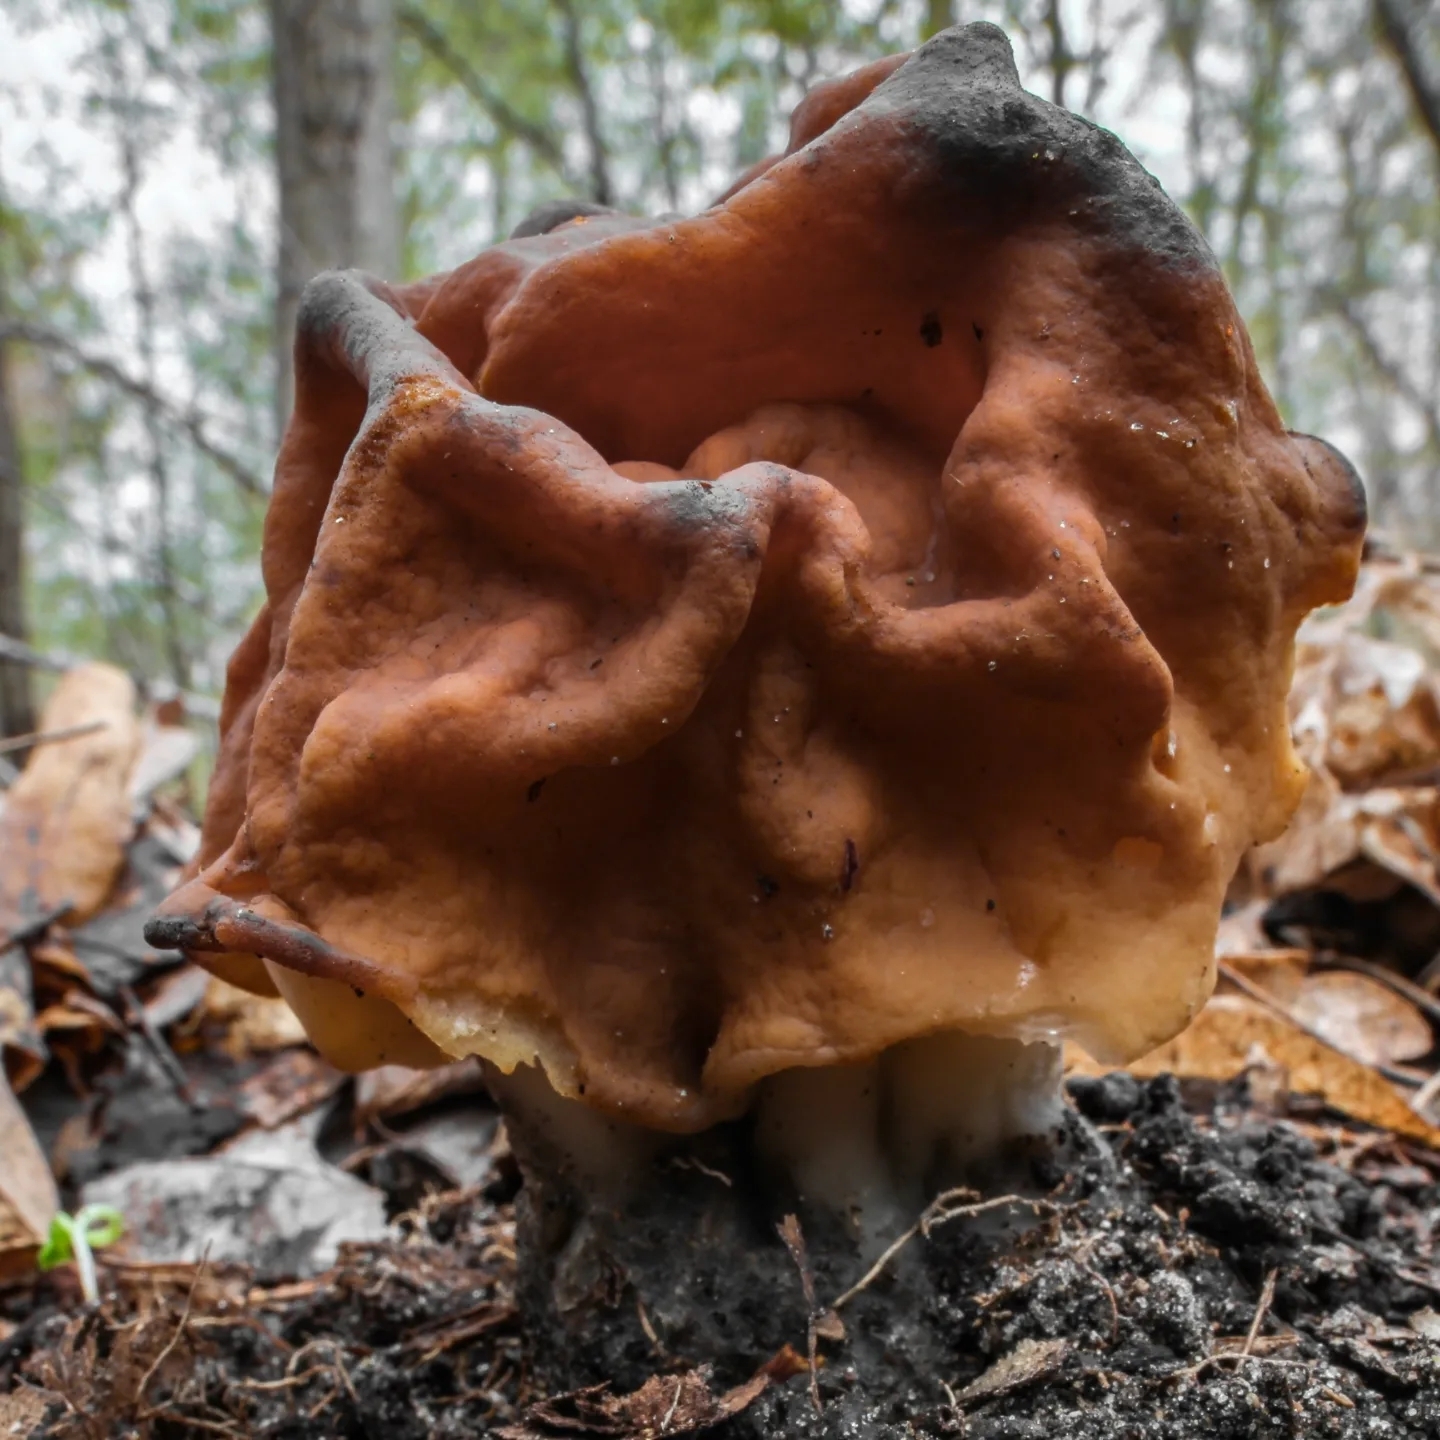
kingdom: Fungi
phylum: Ascomycota
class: Pezizomycetes
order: Pezizales
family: Discinaceae
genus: Gyromitra
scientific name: Gyromitra korfii
